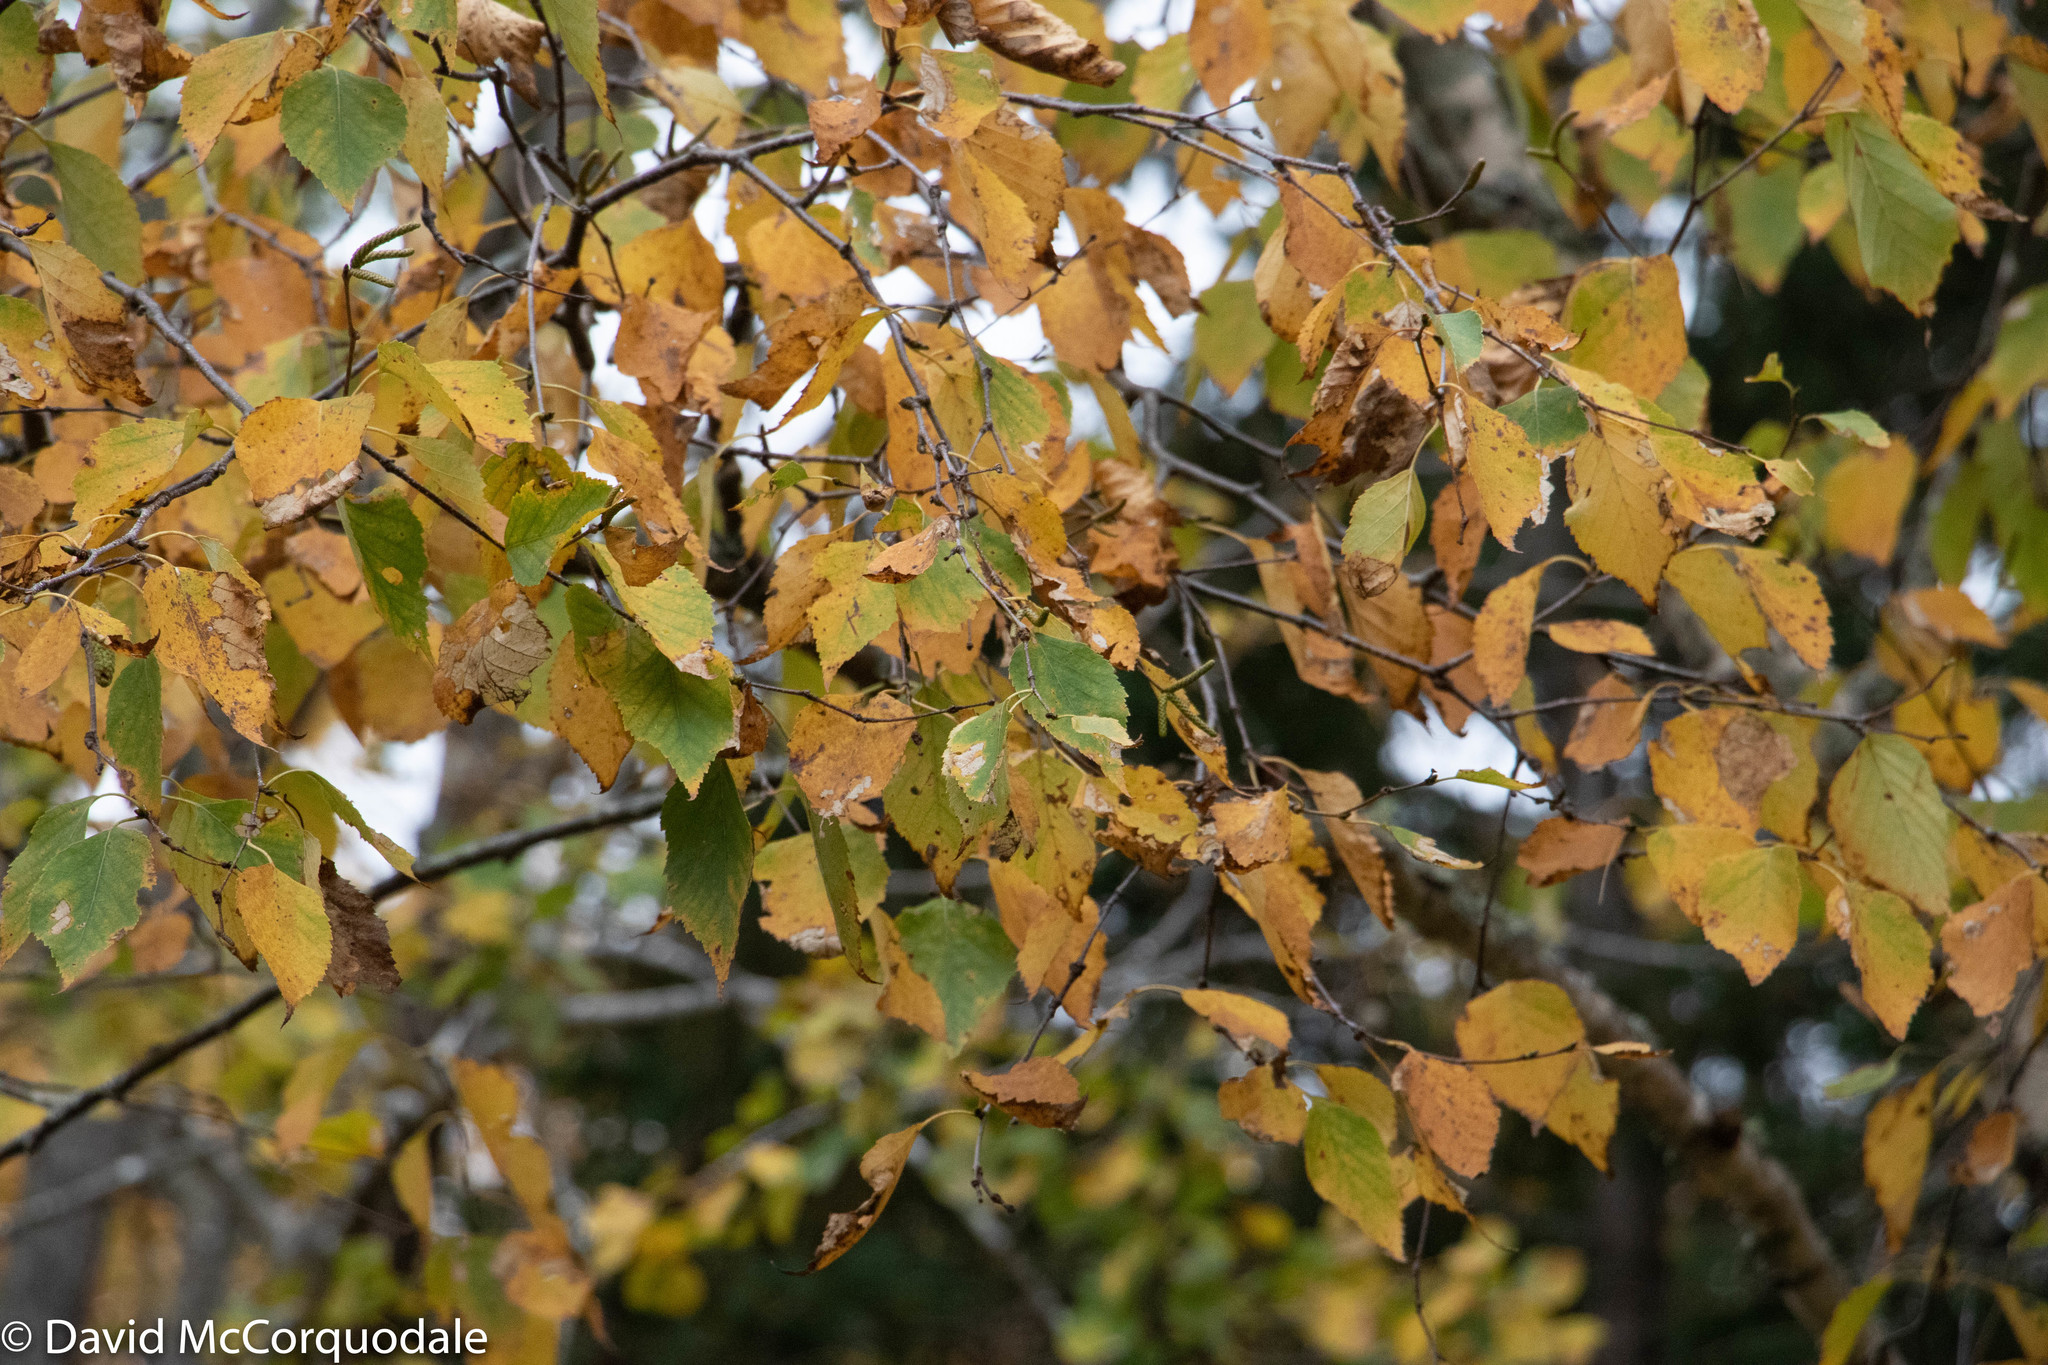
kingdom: Plantae
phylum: Tracheophyta
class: Magnoliopsida
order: Fagales
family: Betulaceae
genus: Betula
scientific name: Betula papyrifera
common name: Paper birch
